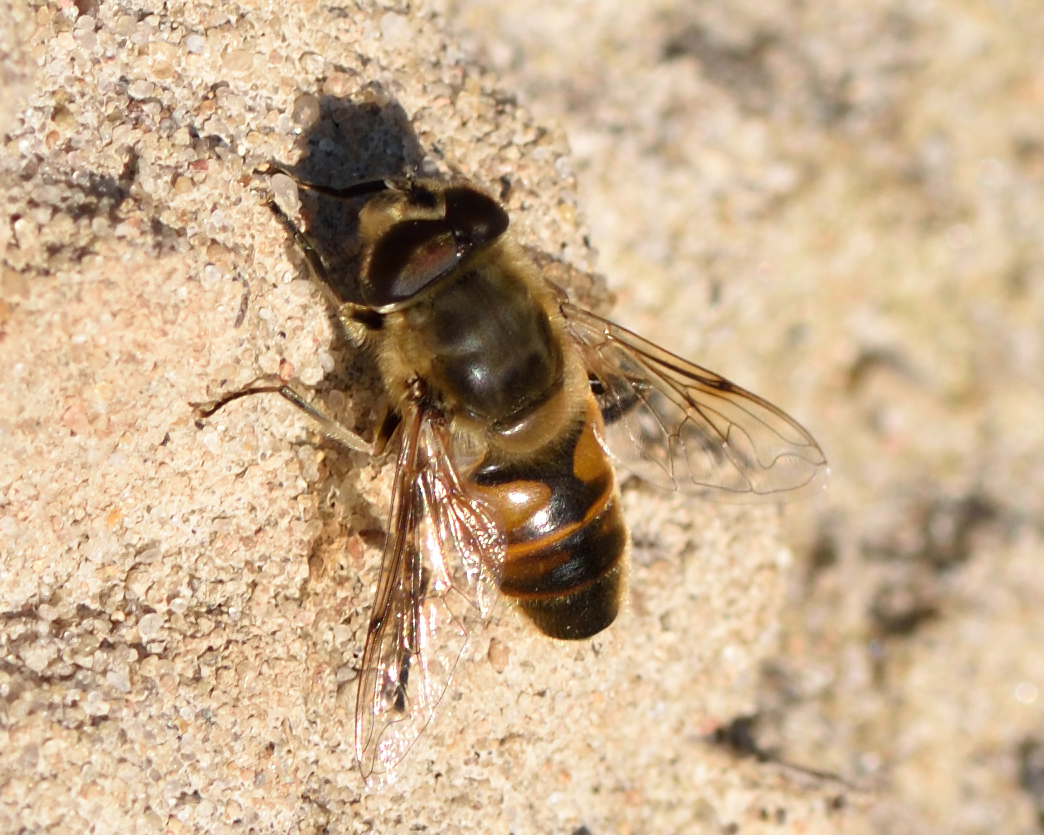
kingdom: Animalia
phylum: Arthropoda
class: Insecta
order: Diptera
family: Syrphidae
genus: Eristalis
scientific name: Eristalis tenax
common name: Drone fly
